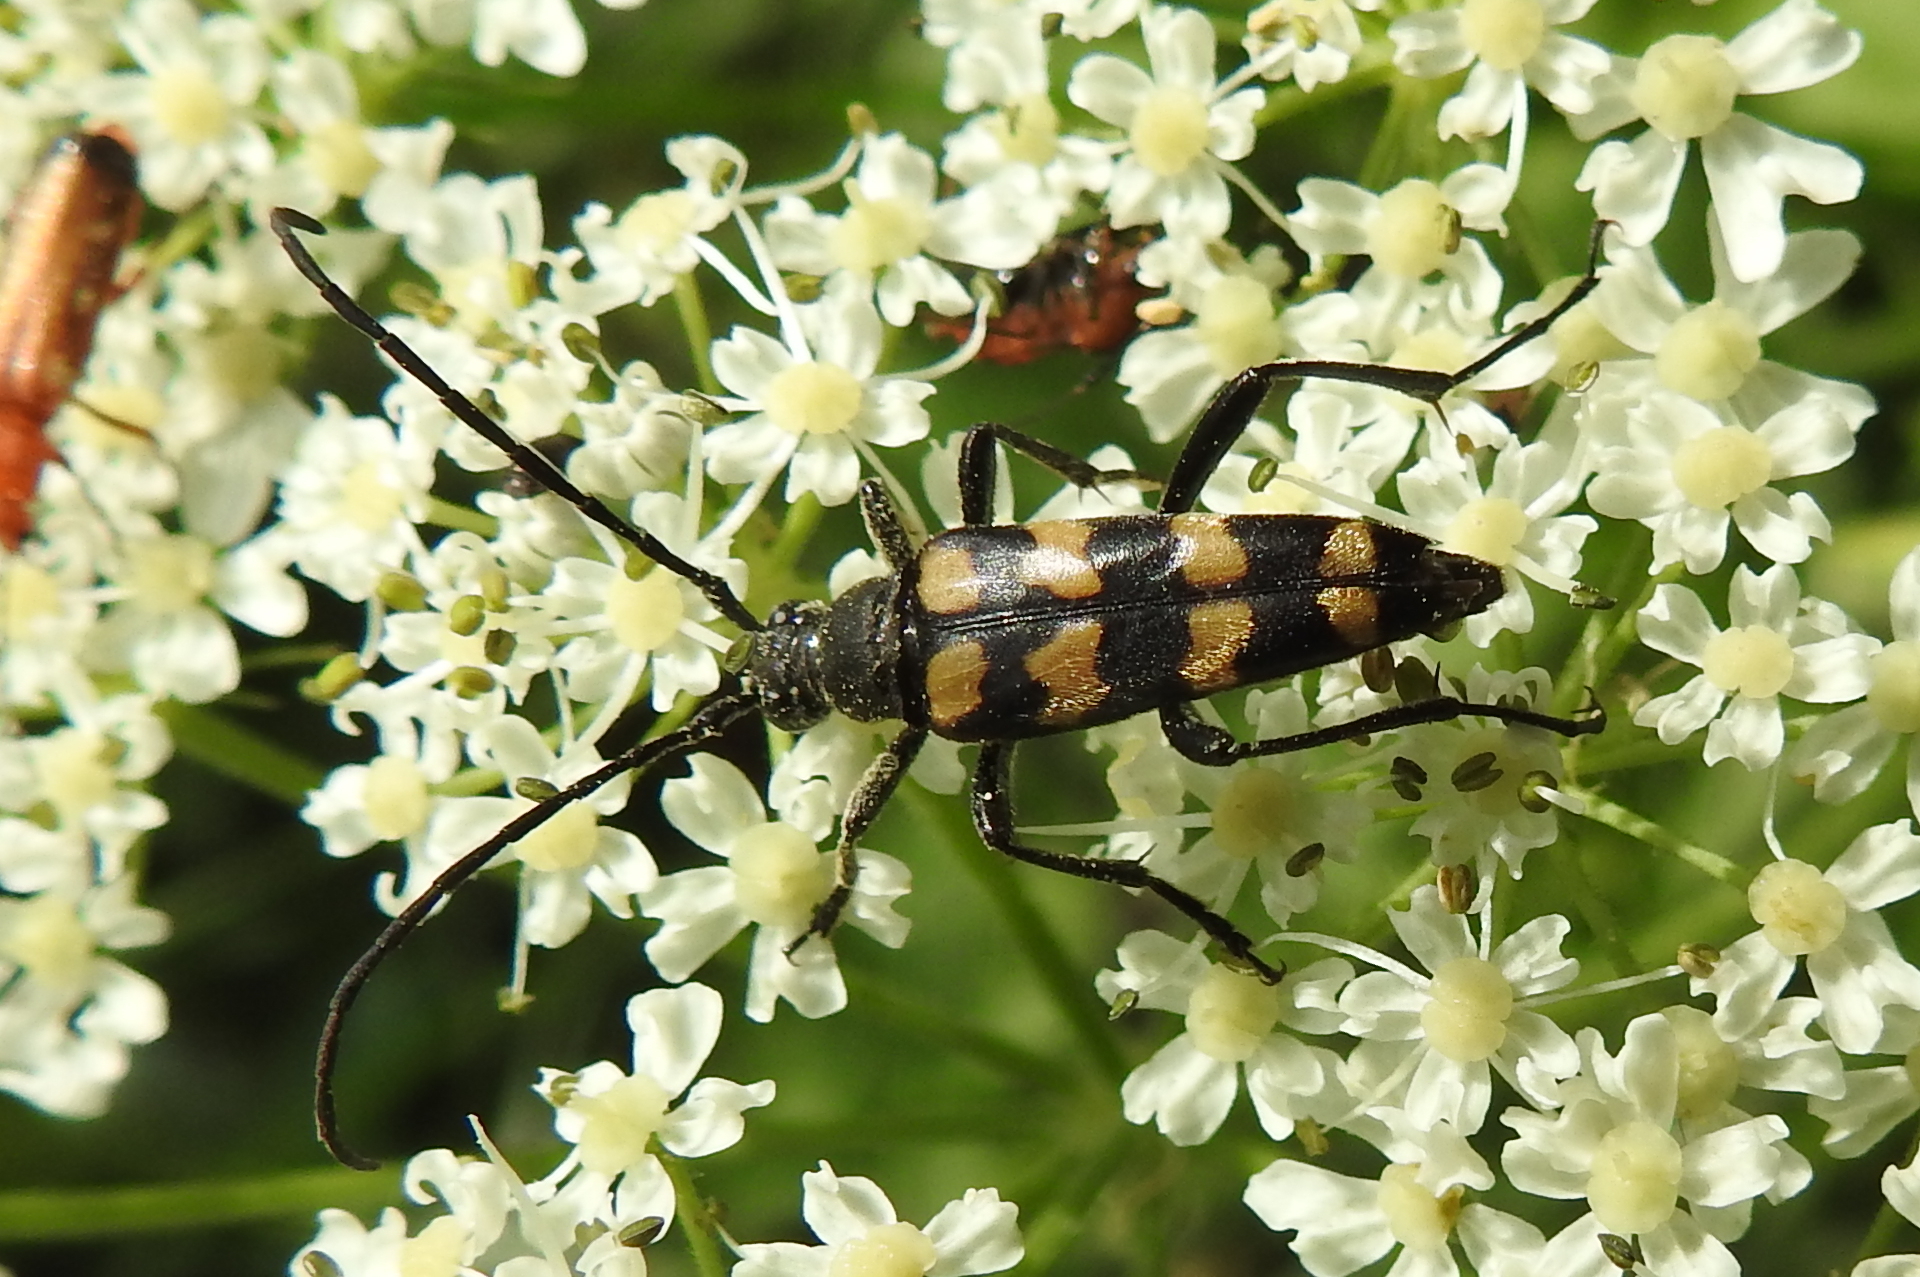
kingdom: Animalia
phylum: Arthropoda
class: Insecta
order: Coleoptera
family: Cerambycidae
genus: Leptura
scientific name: Leptura quadrifasciata
